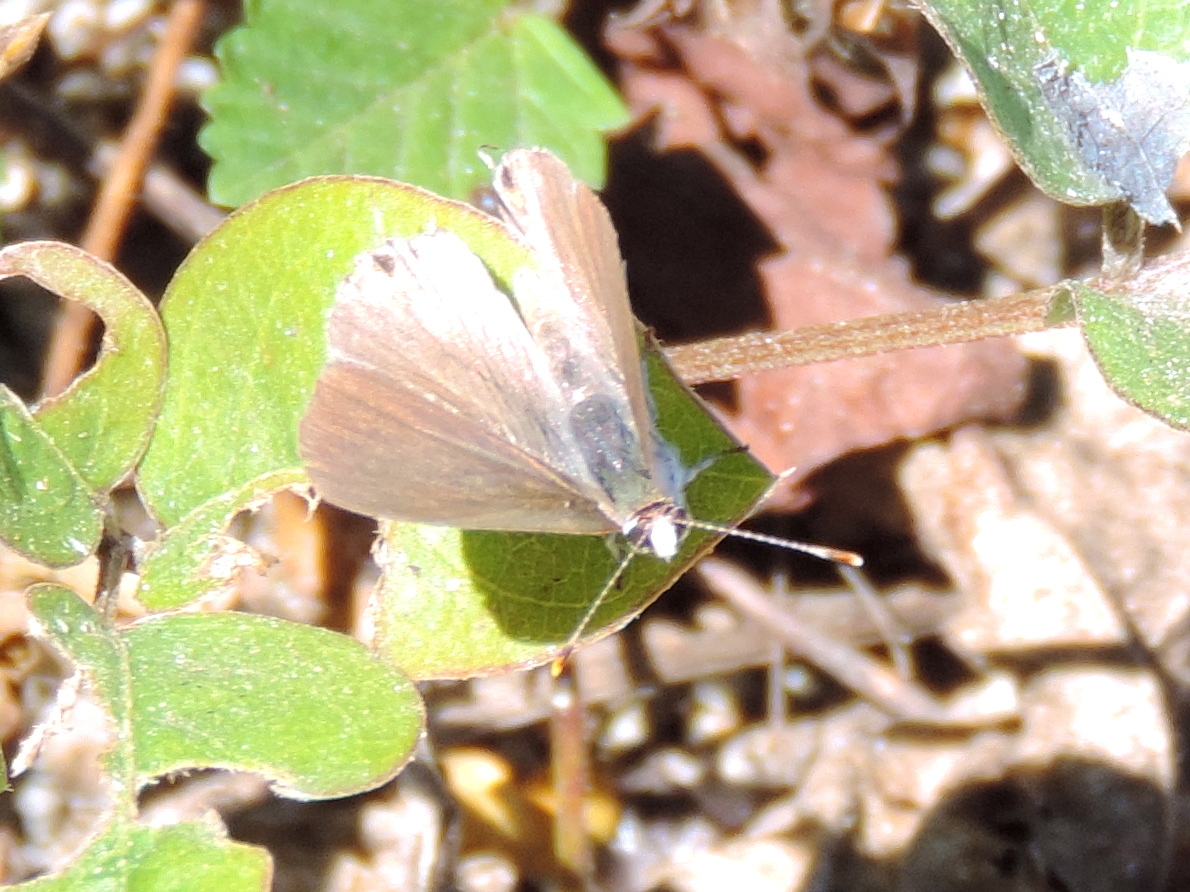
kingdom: Animalia
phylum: Arthropoda
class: Insecta
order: Lepidoptera
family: Lycaenidae
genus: Arawacus
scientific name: Arawacus sito
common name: Fine-lined hairstreak
